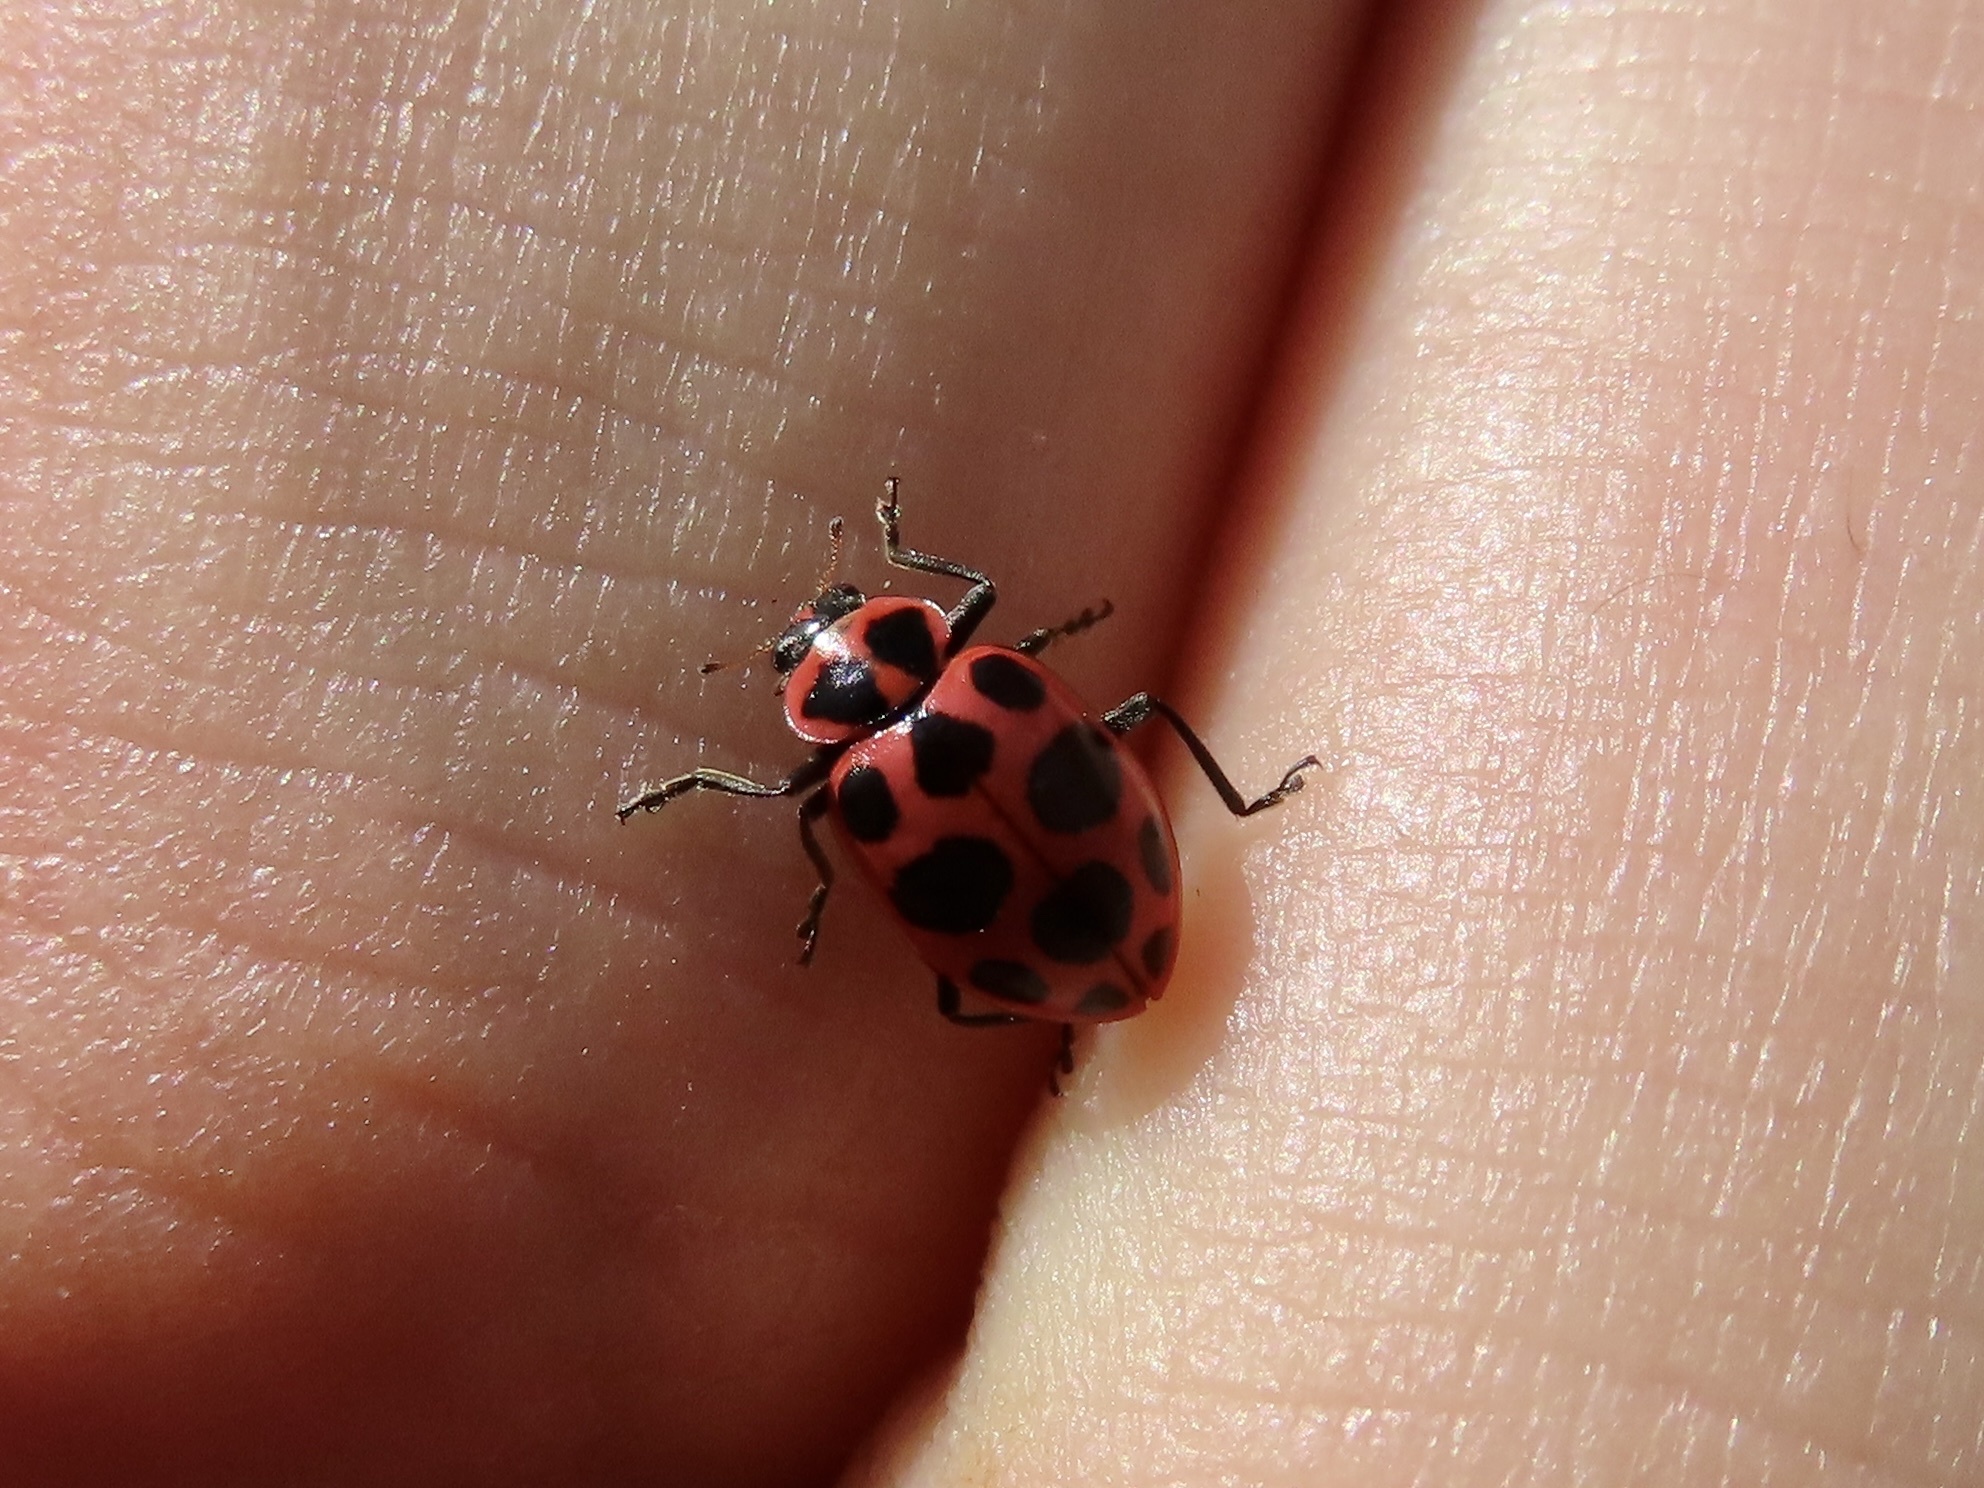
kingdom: Animalia
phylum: Arthropoda
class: Insecta
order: Coleoptera
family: Coccinellidae
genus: Coleomegilla
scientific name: Coleomegilla maculata
